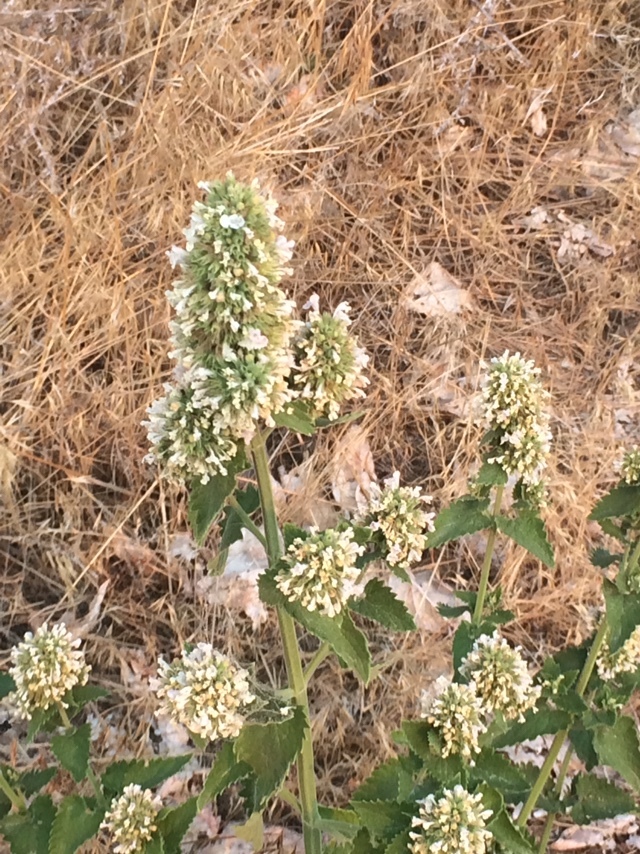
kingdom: Plantae
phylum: Tracheophyta
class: Magnoliopsida
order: Lamiales
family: Lamiaceae
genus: Nepeta
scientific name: Nepeta cataria
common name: Catnip
